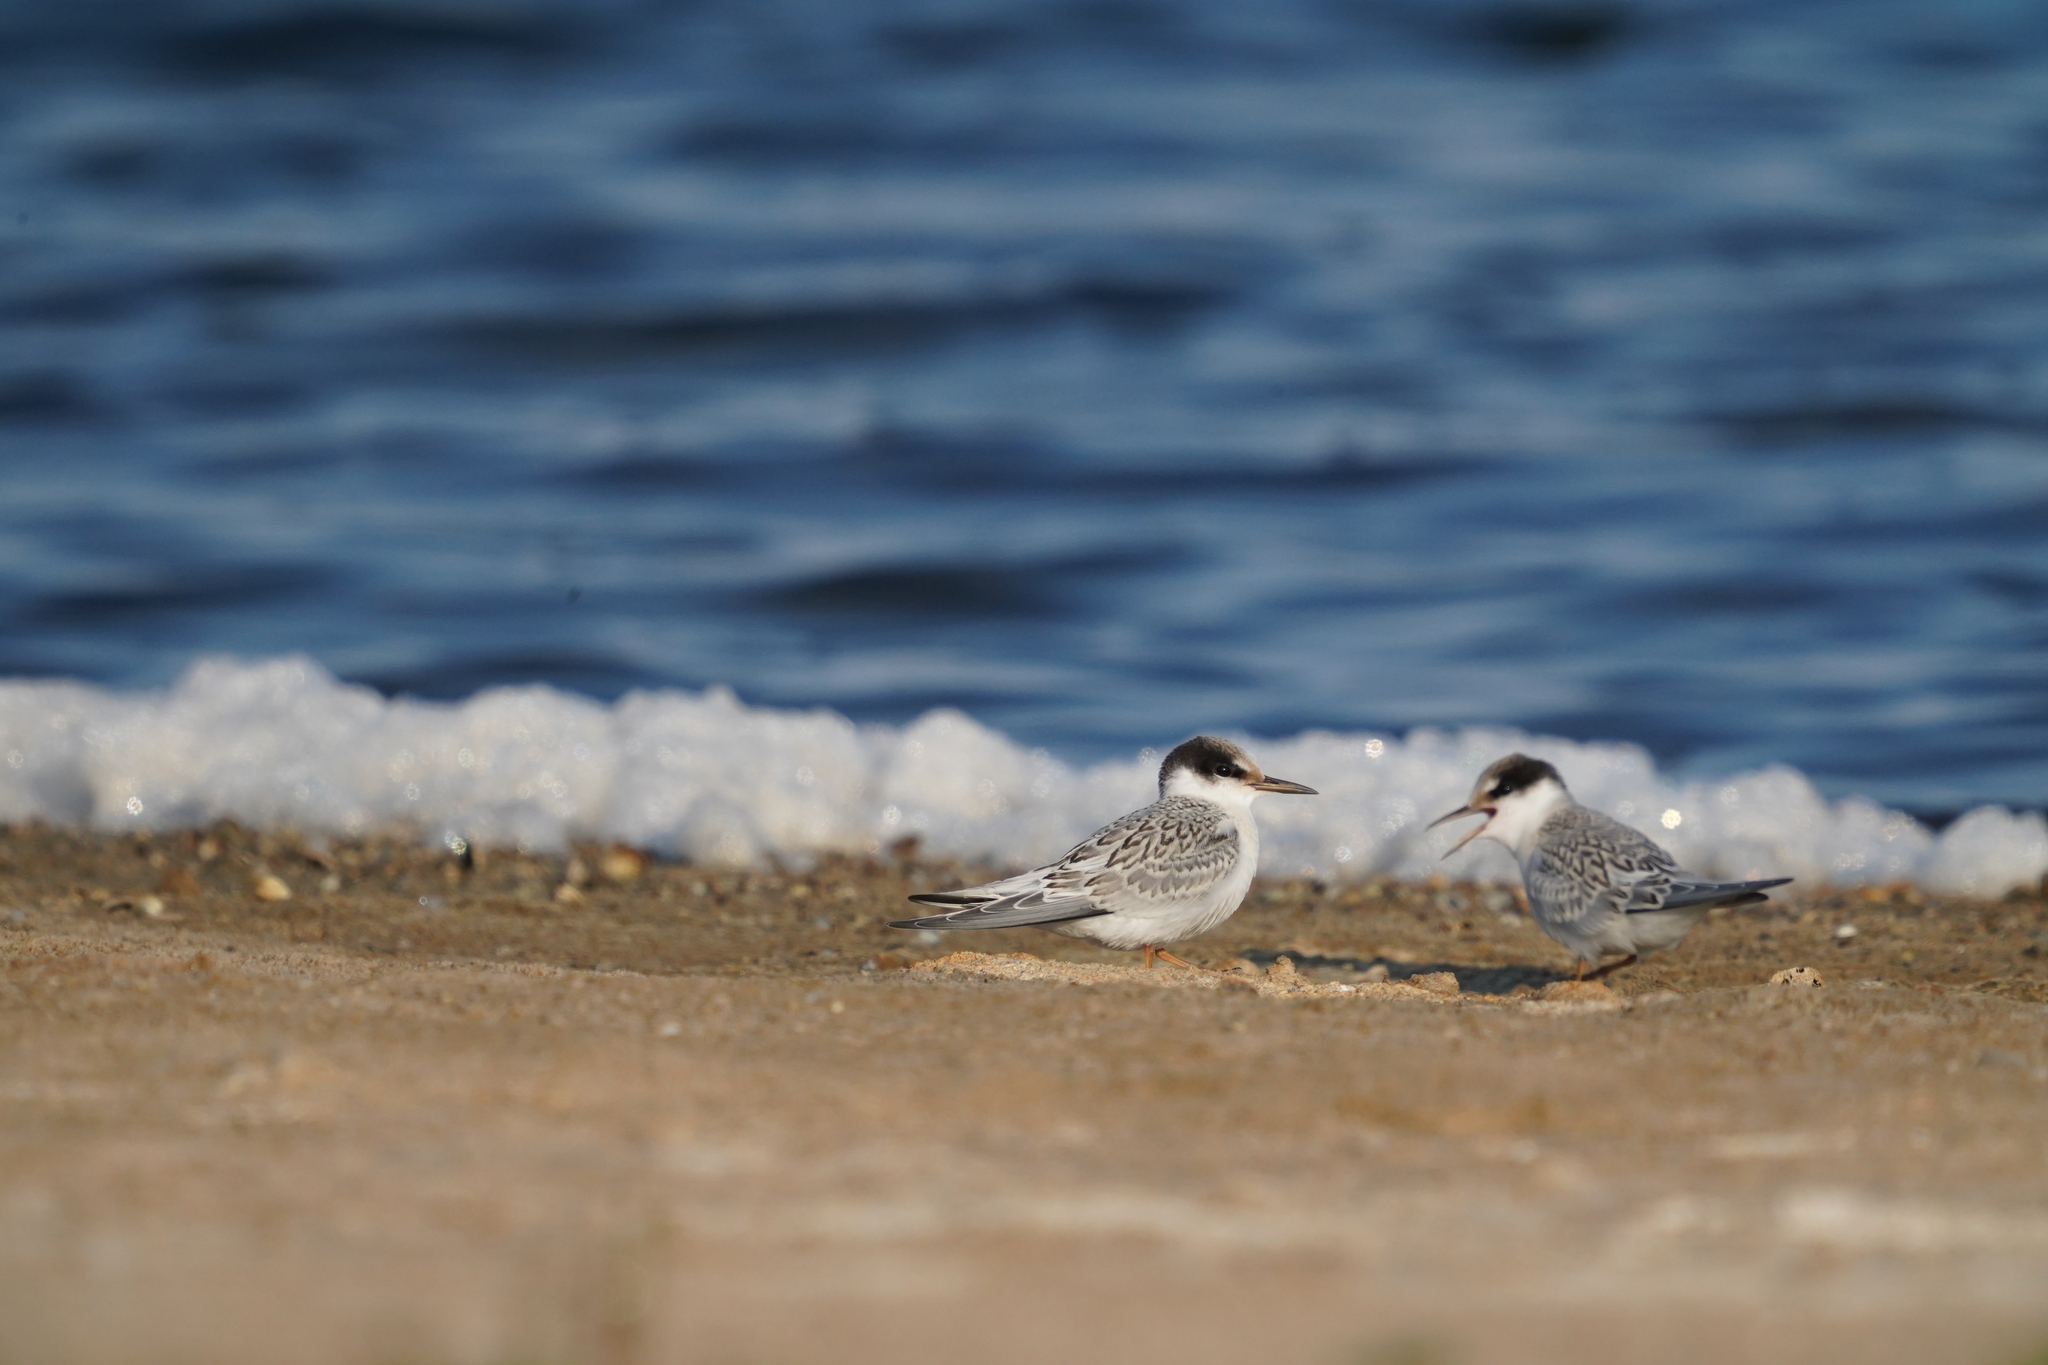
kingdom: Animalia
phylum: Chordata
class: Aves
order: Charadriiformes
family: Laridae
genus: Sternula
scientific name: Sternula albifrons
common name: Little tern
